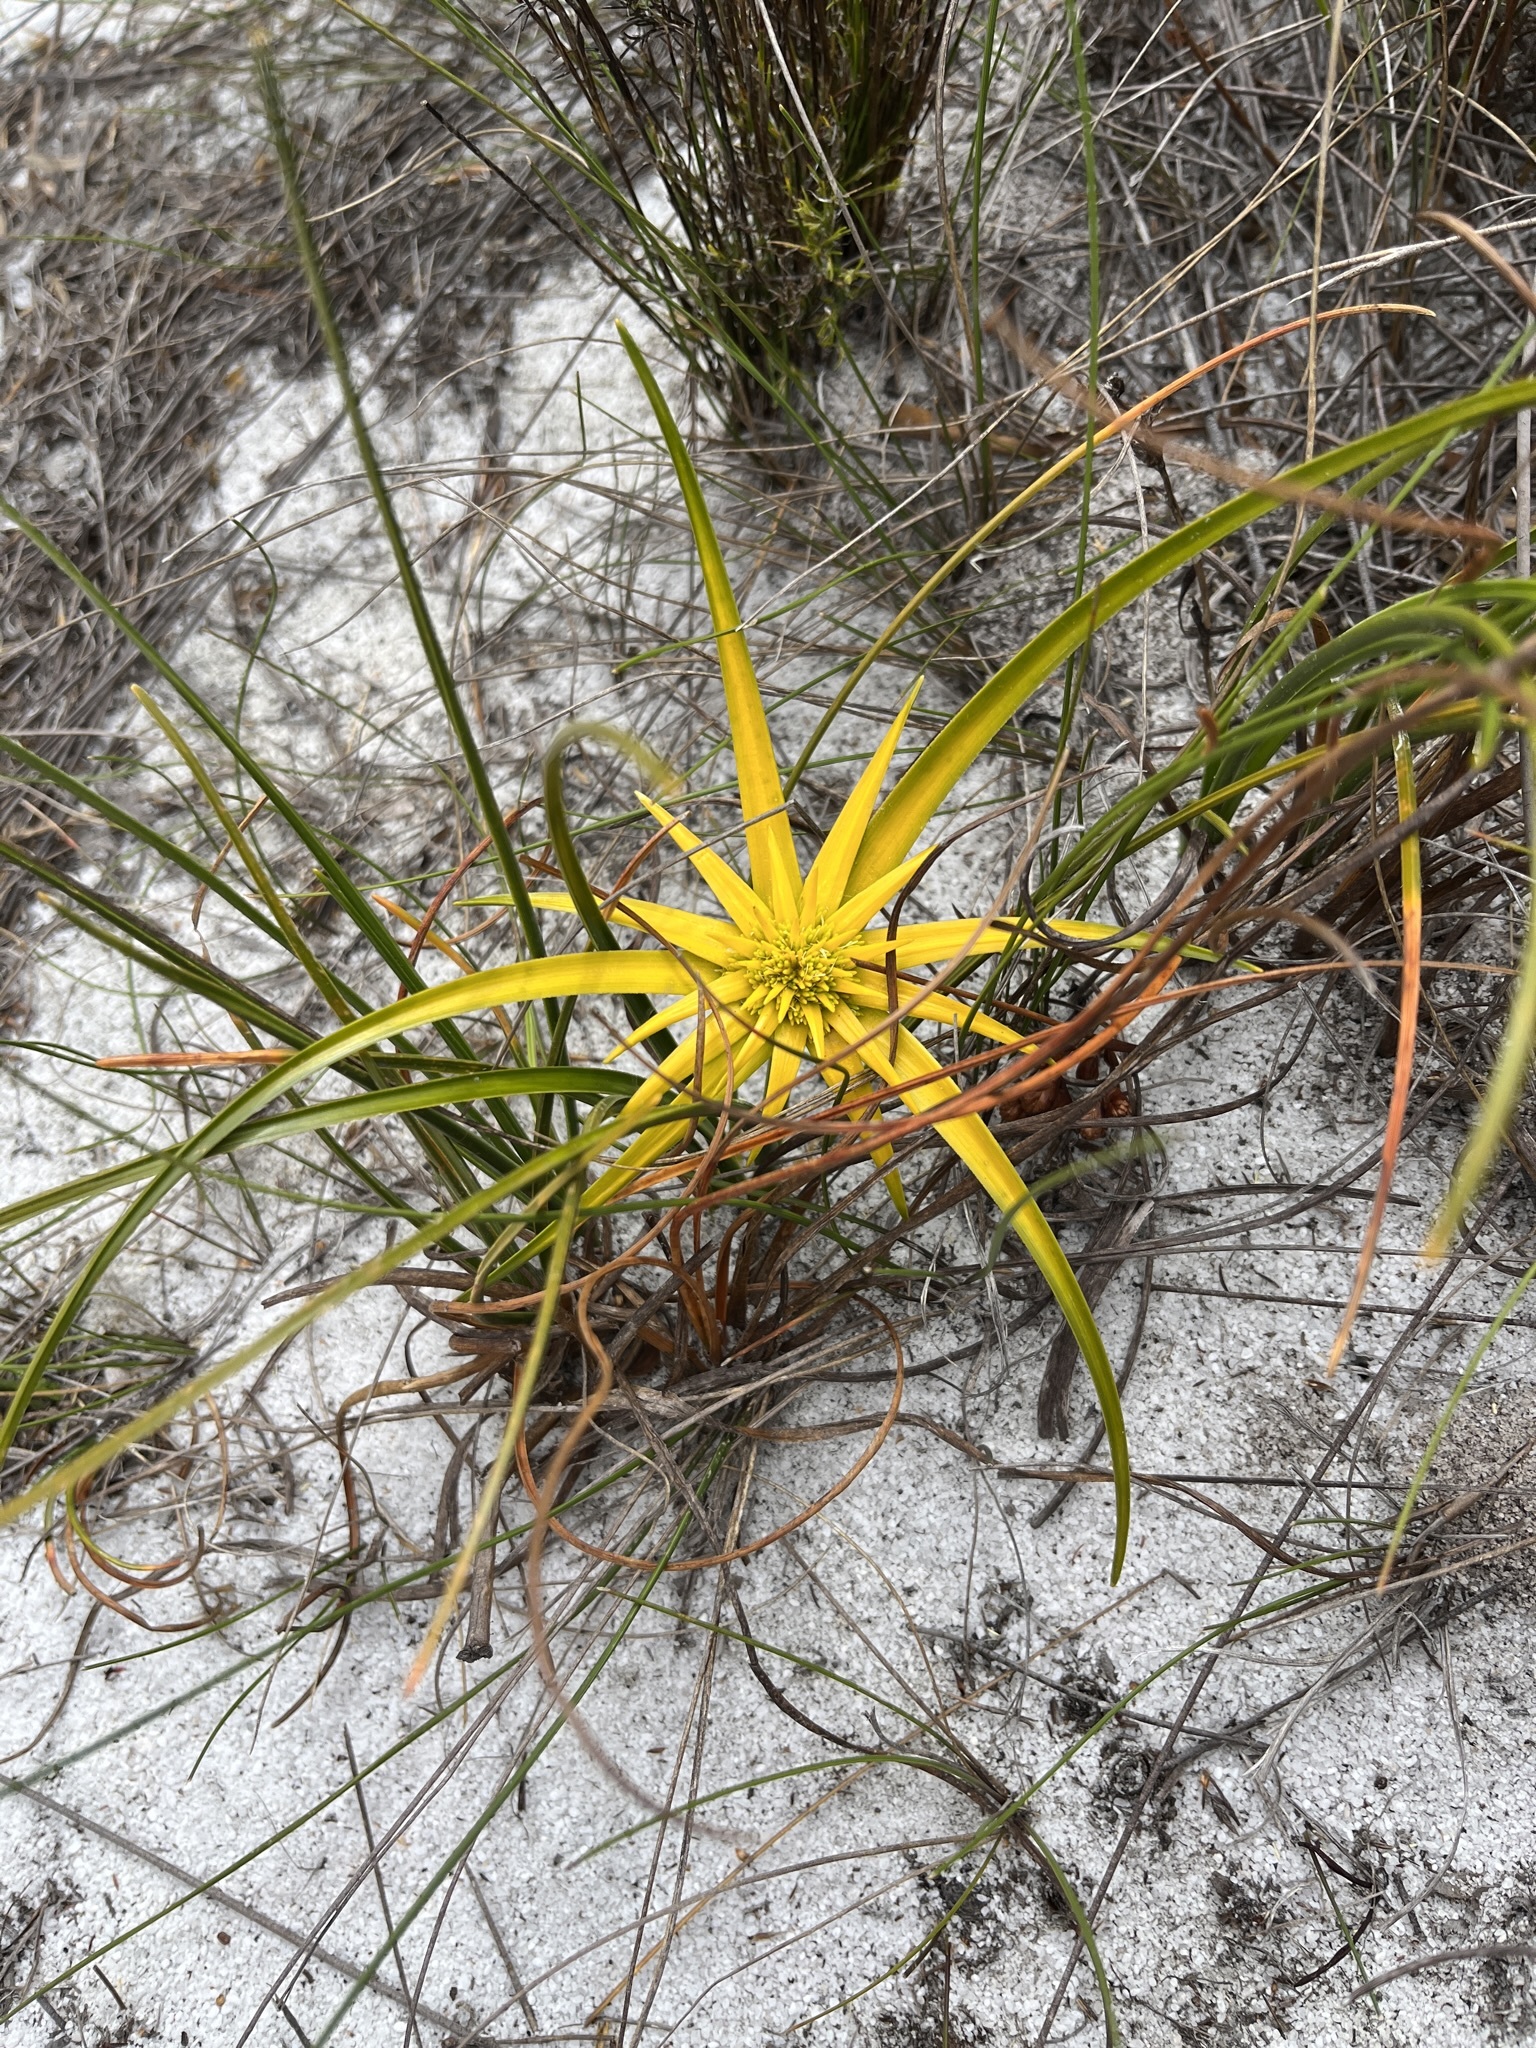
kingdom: Plantae
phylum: Tracheophyta
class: Liliopsida
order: Poales
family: Cyperaceae
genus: Ficinia
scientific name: Ficinia radiata
